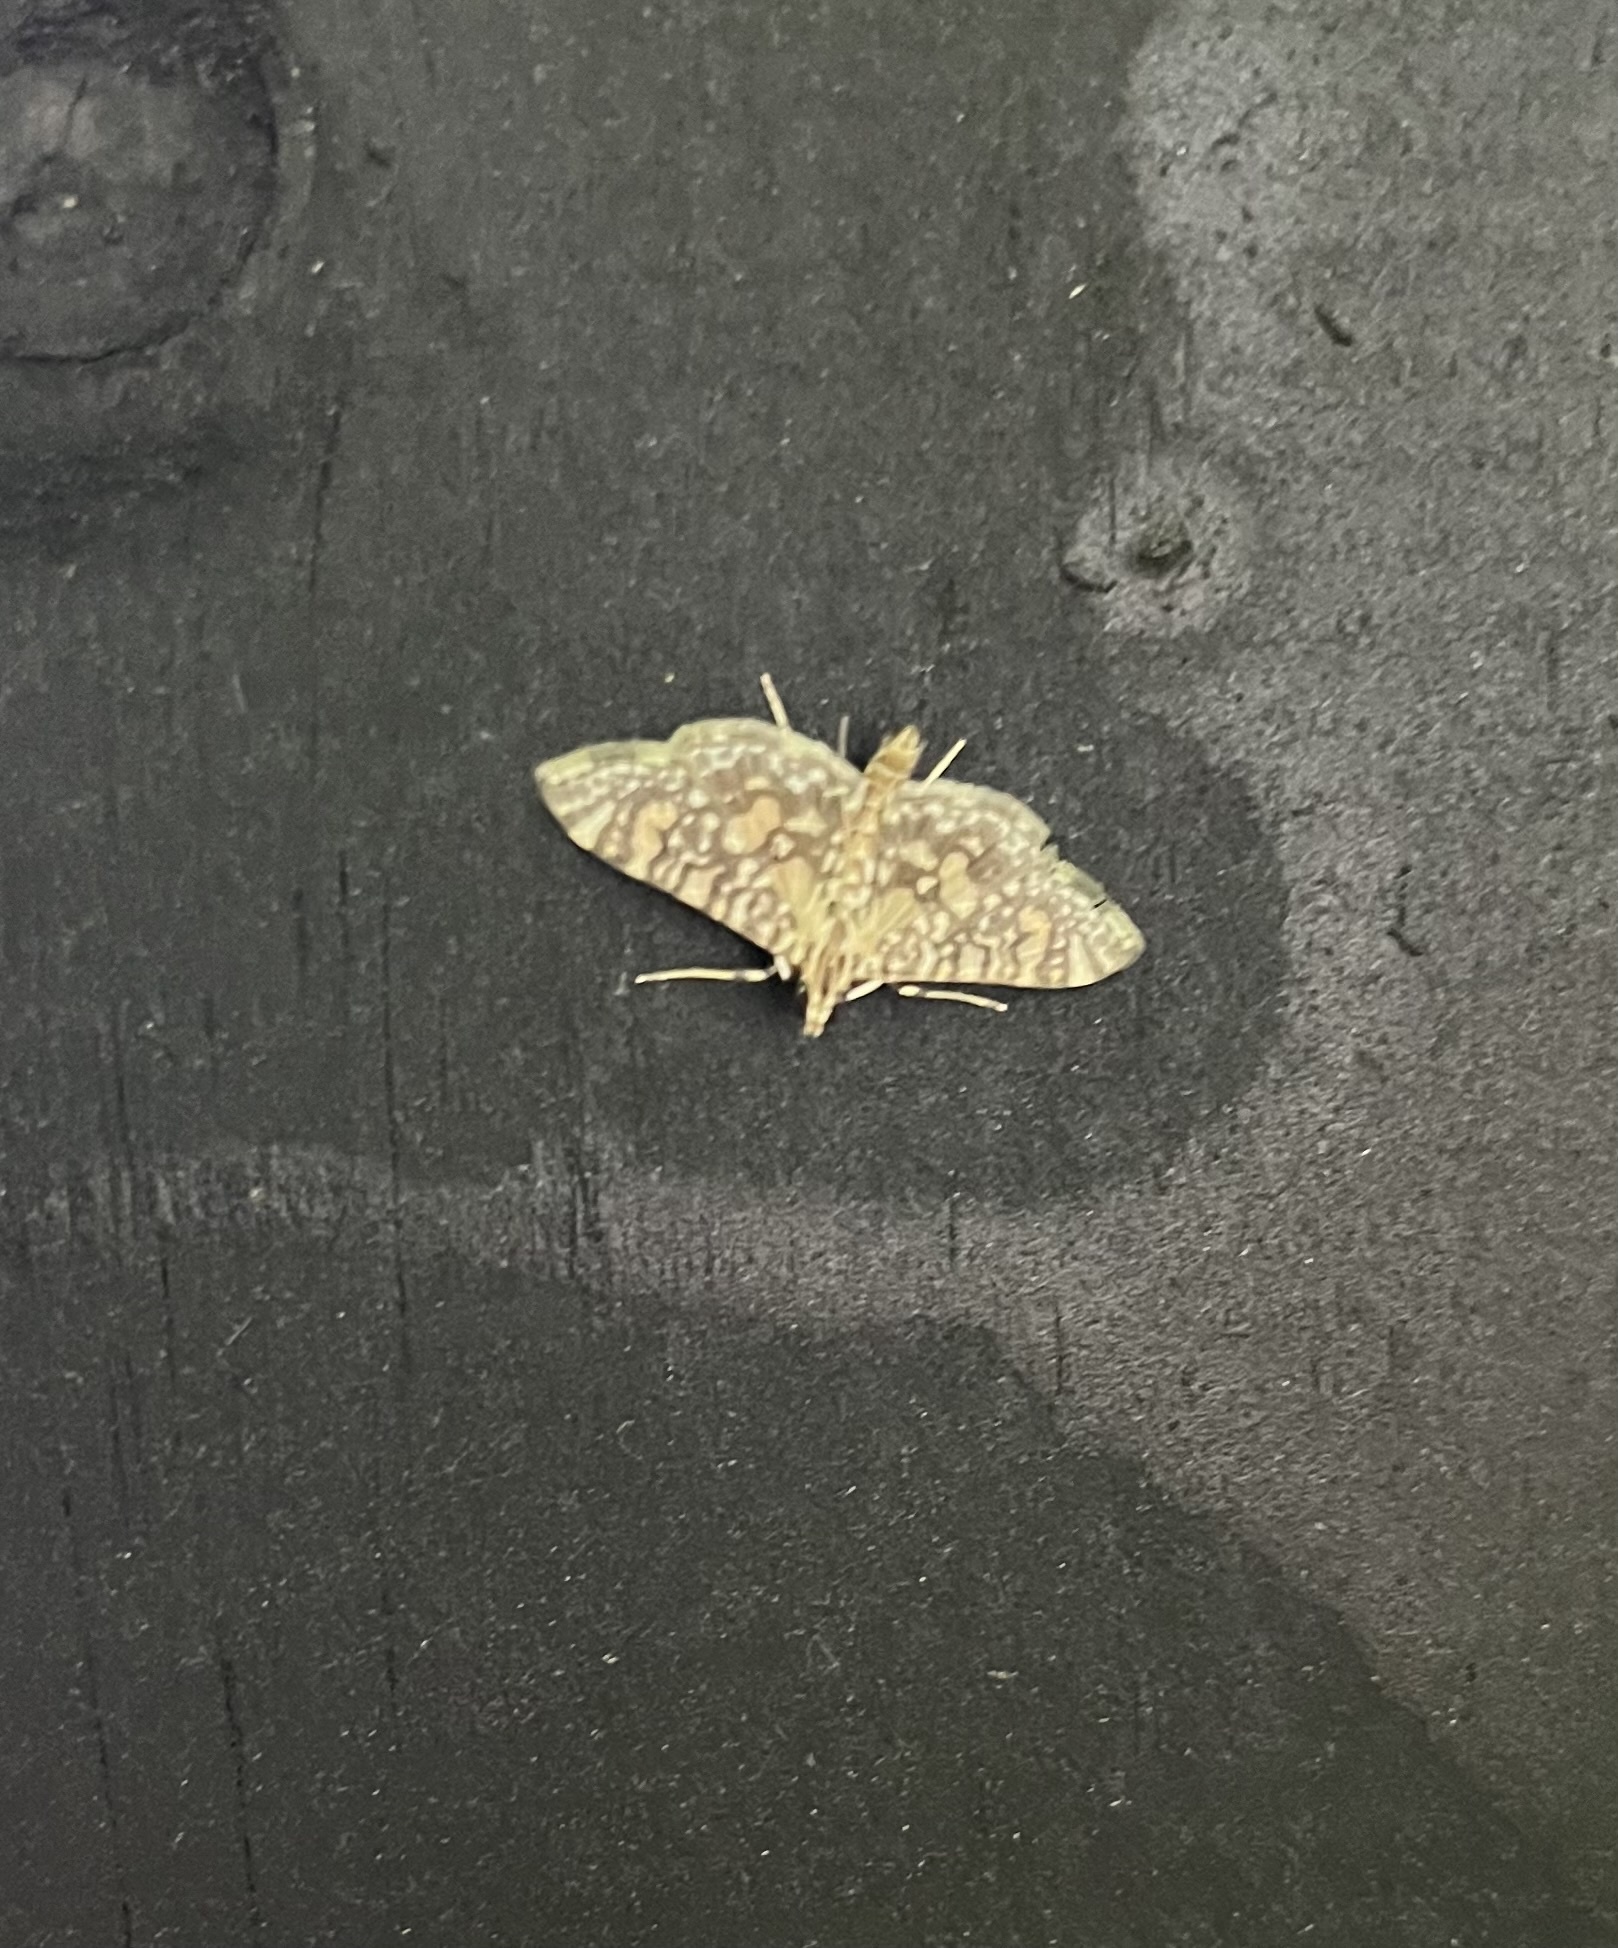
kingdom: Animalia
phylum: Arthropoda
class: Insecta
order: Lepidoptera
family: Crambidae
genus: Glyphodes
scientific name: Glyphodes onychinalis
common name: Swan plant moth
